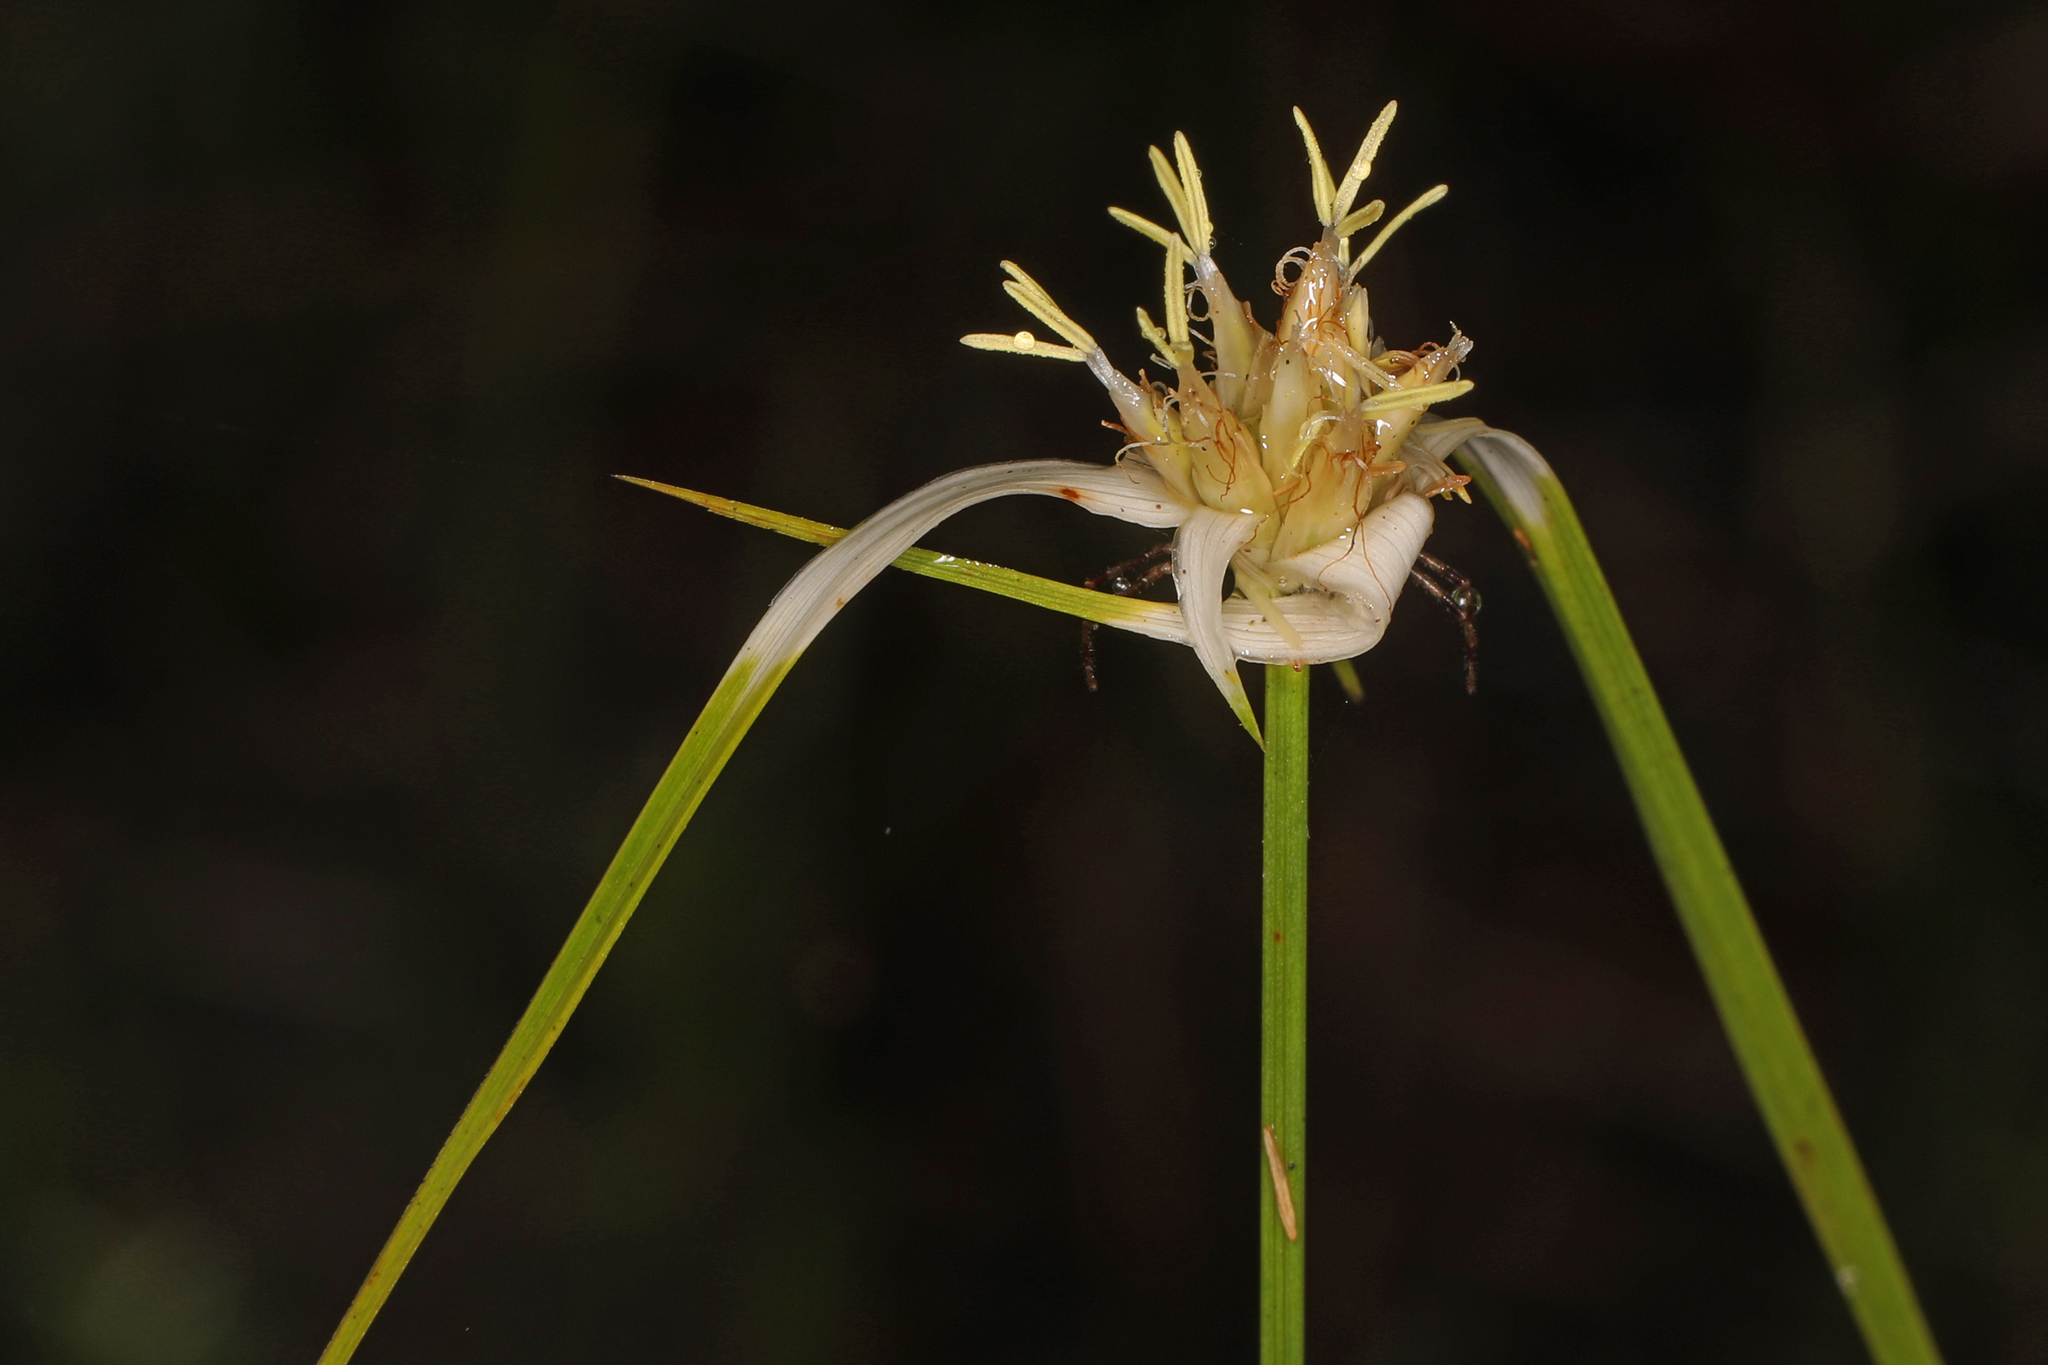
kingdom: Plantae
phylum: Tracheophyta
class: Liliopsida
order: Poales
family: Cyperaceae
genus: Rhynchospora
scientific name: Rhynchospora colorata
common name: Star sedge
